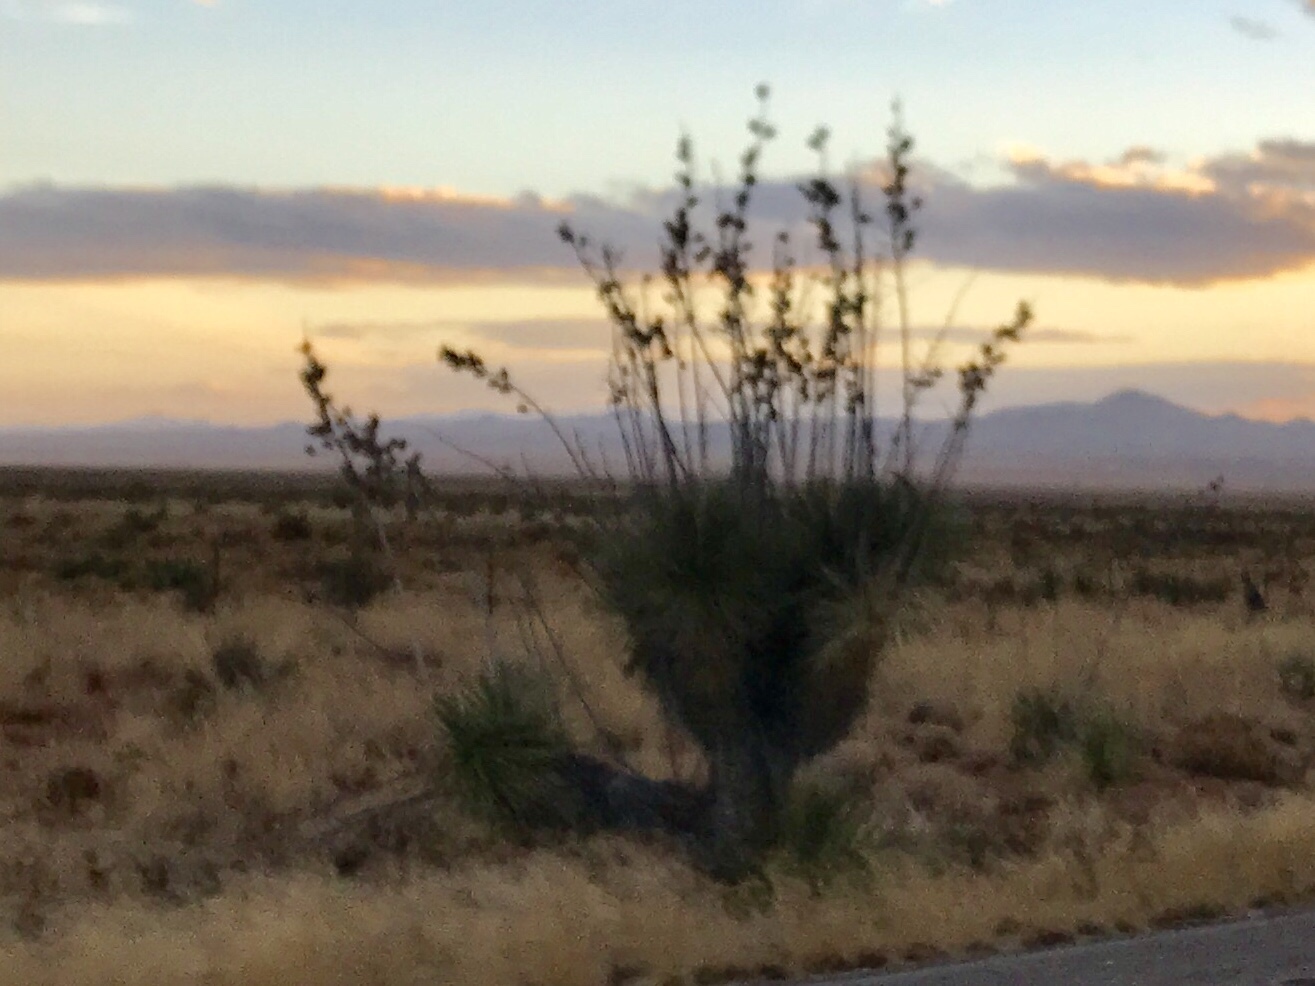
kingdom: Plantae
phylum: Tracheophyta
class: Liliopsida
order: Asparagales
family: Asparagaceae
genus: Yucca
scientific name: Yucca elata
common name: Palmella
